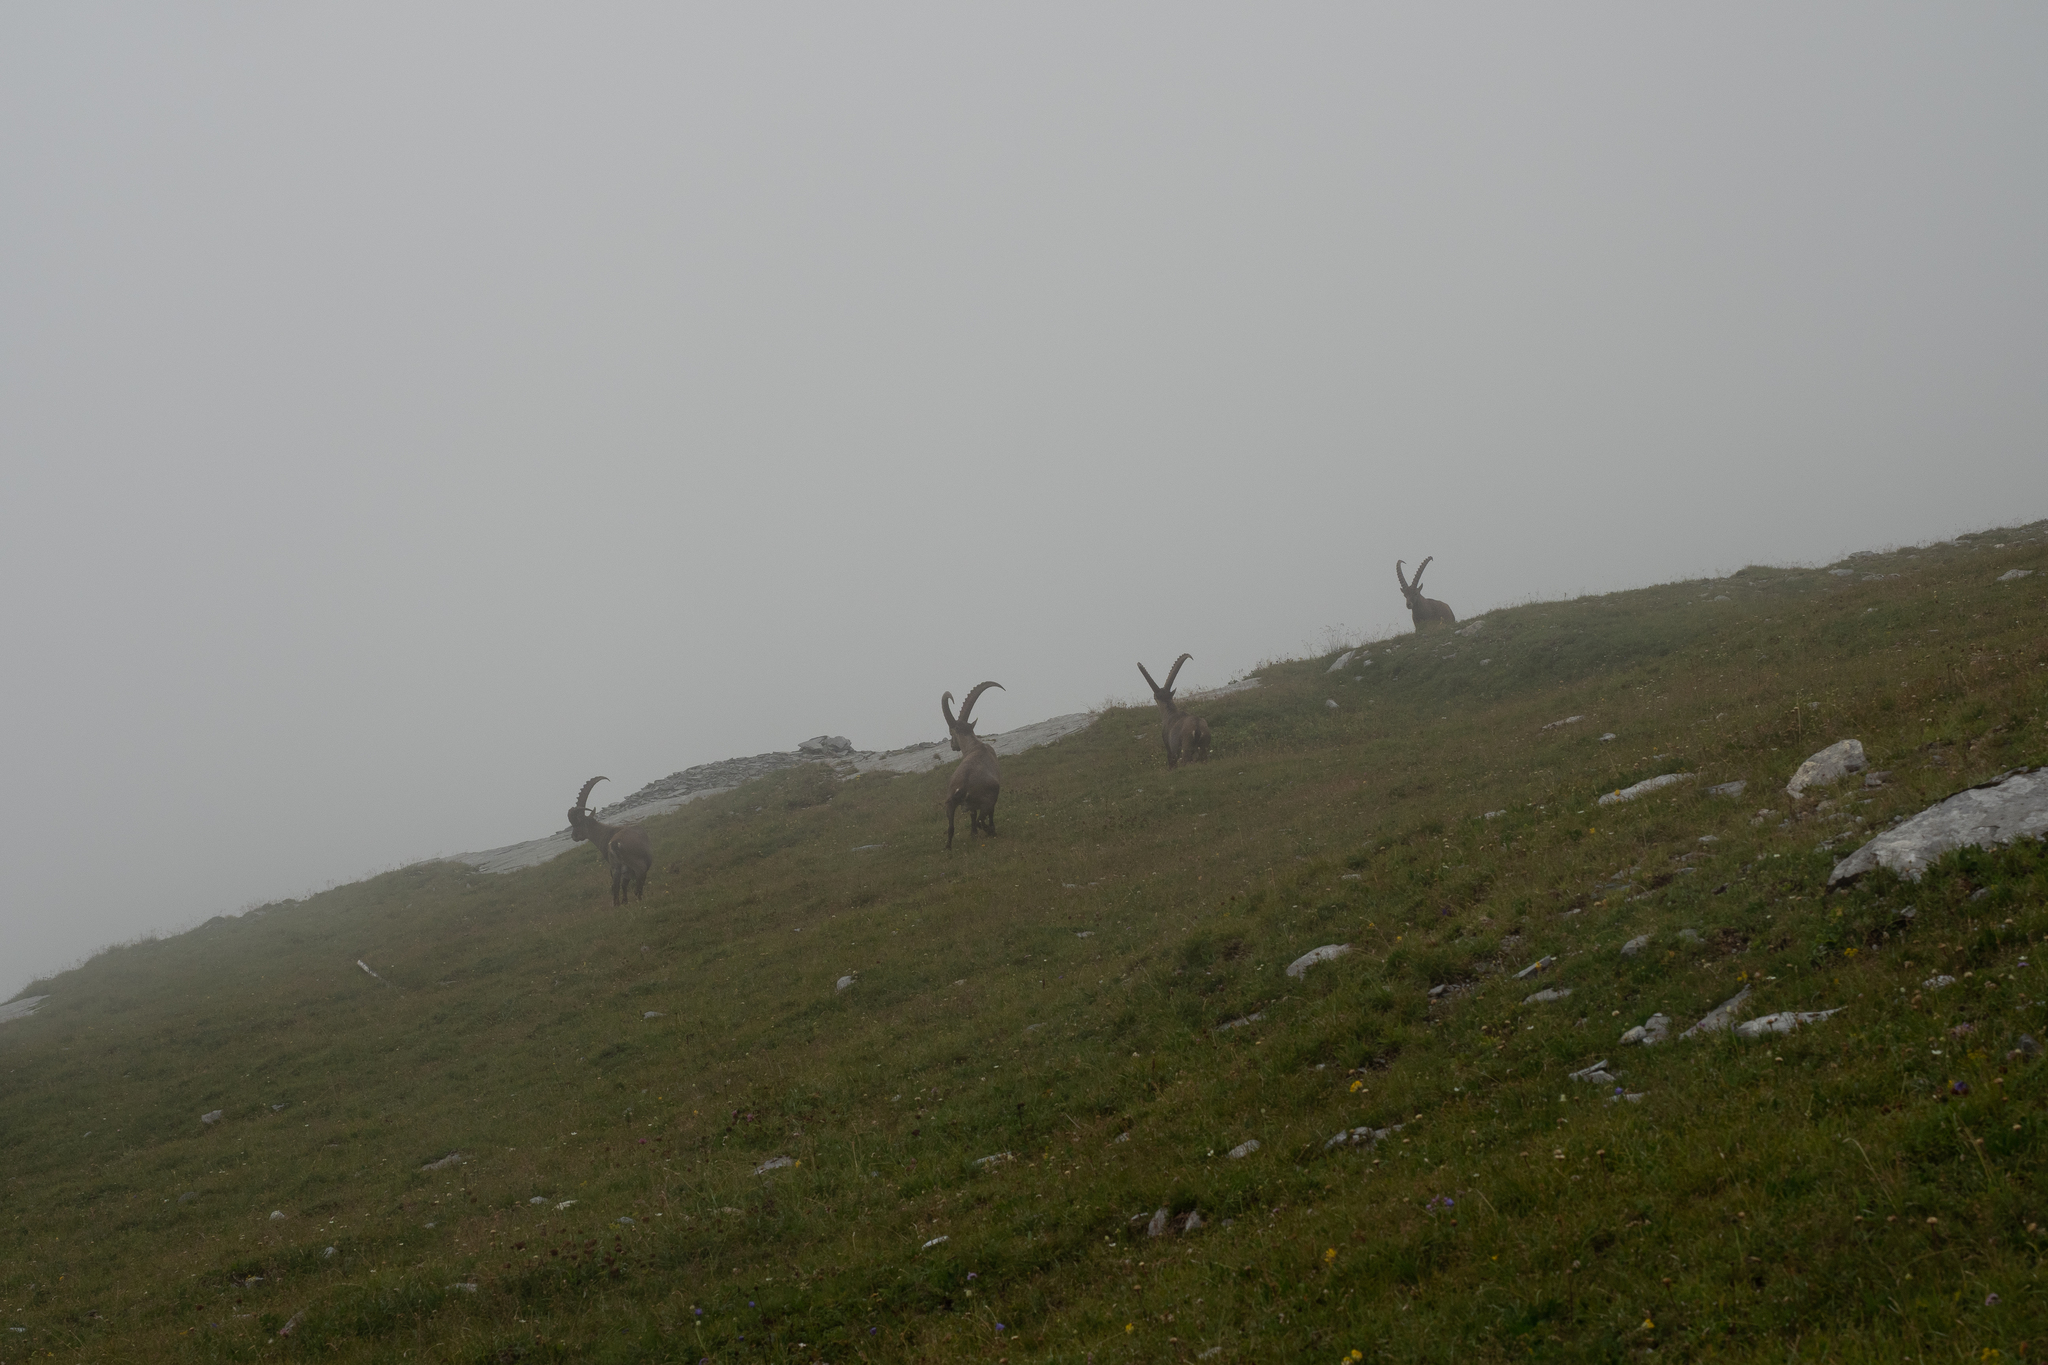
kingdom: Animalia
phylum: Chordata
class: Mammalia
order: Artiodactyla
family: Bovidae
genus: Capra
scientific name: Capra ibex
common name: Alpine ibex
